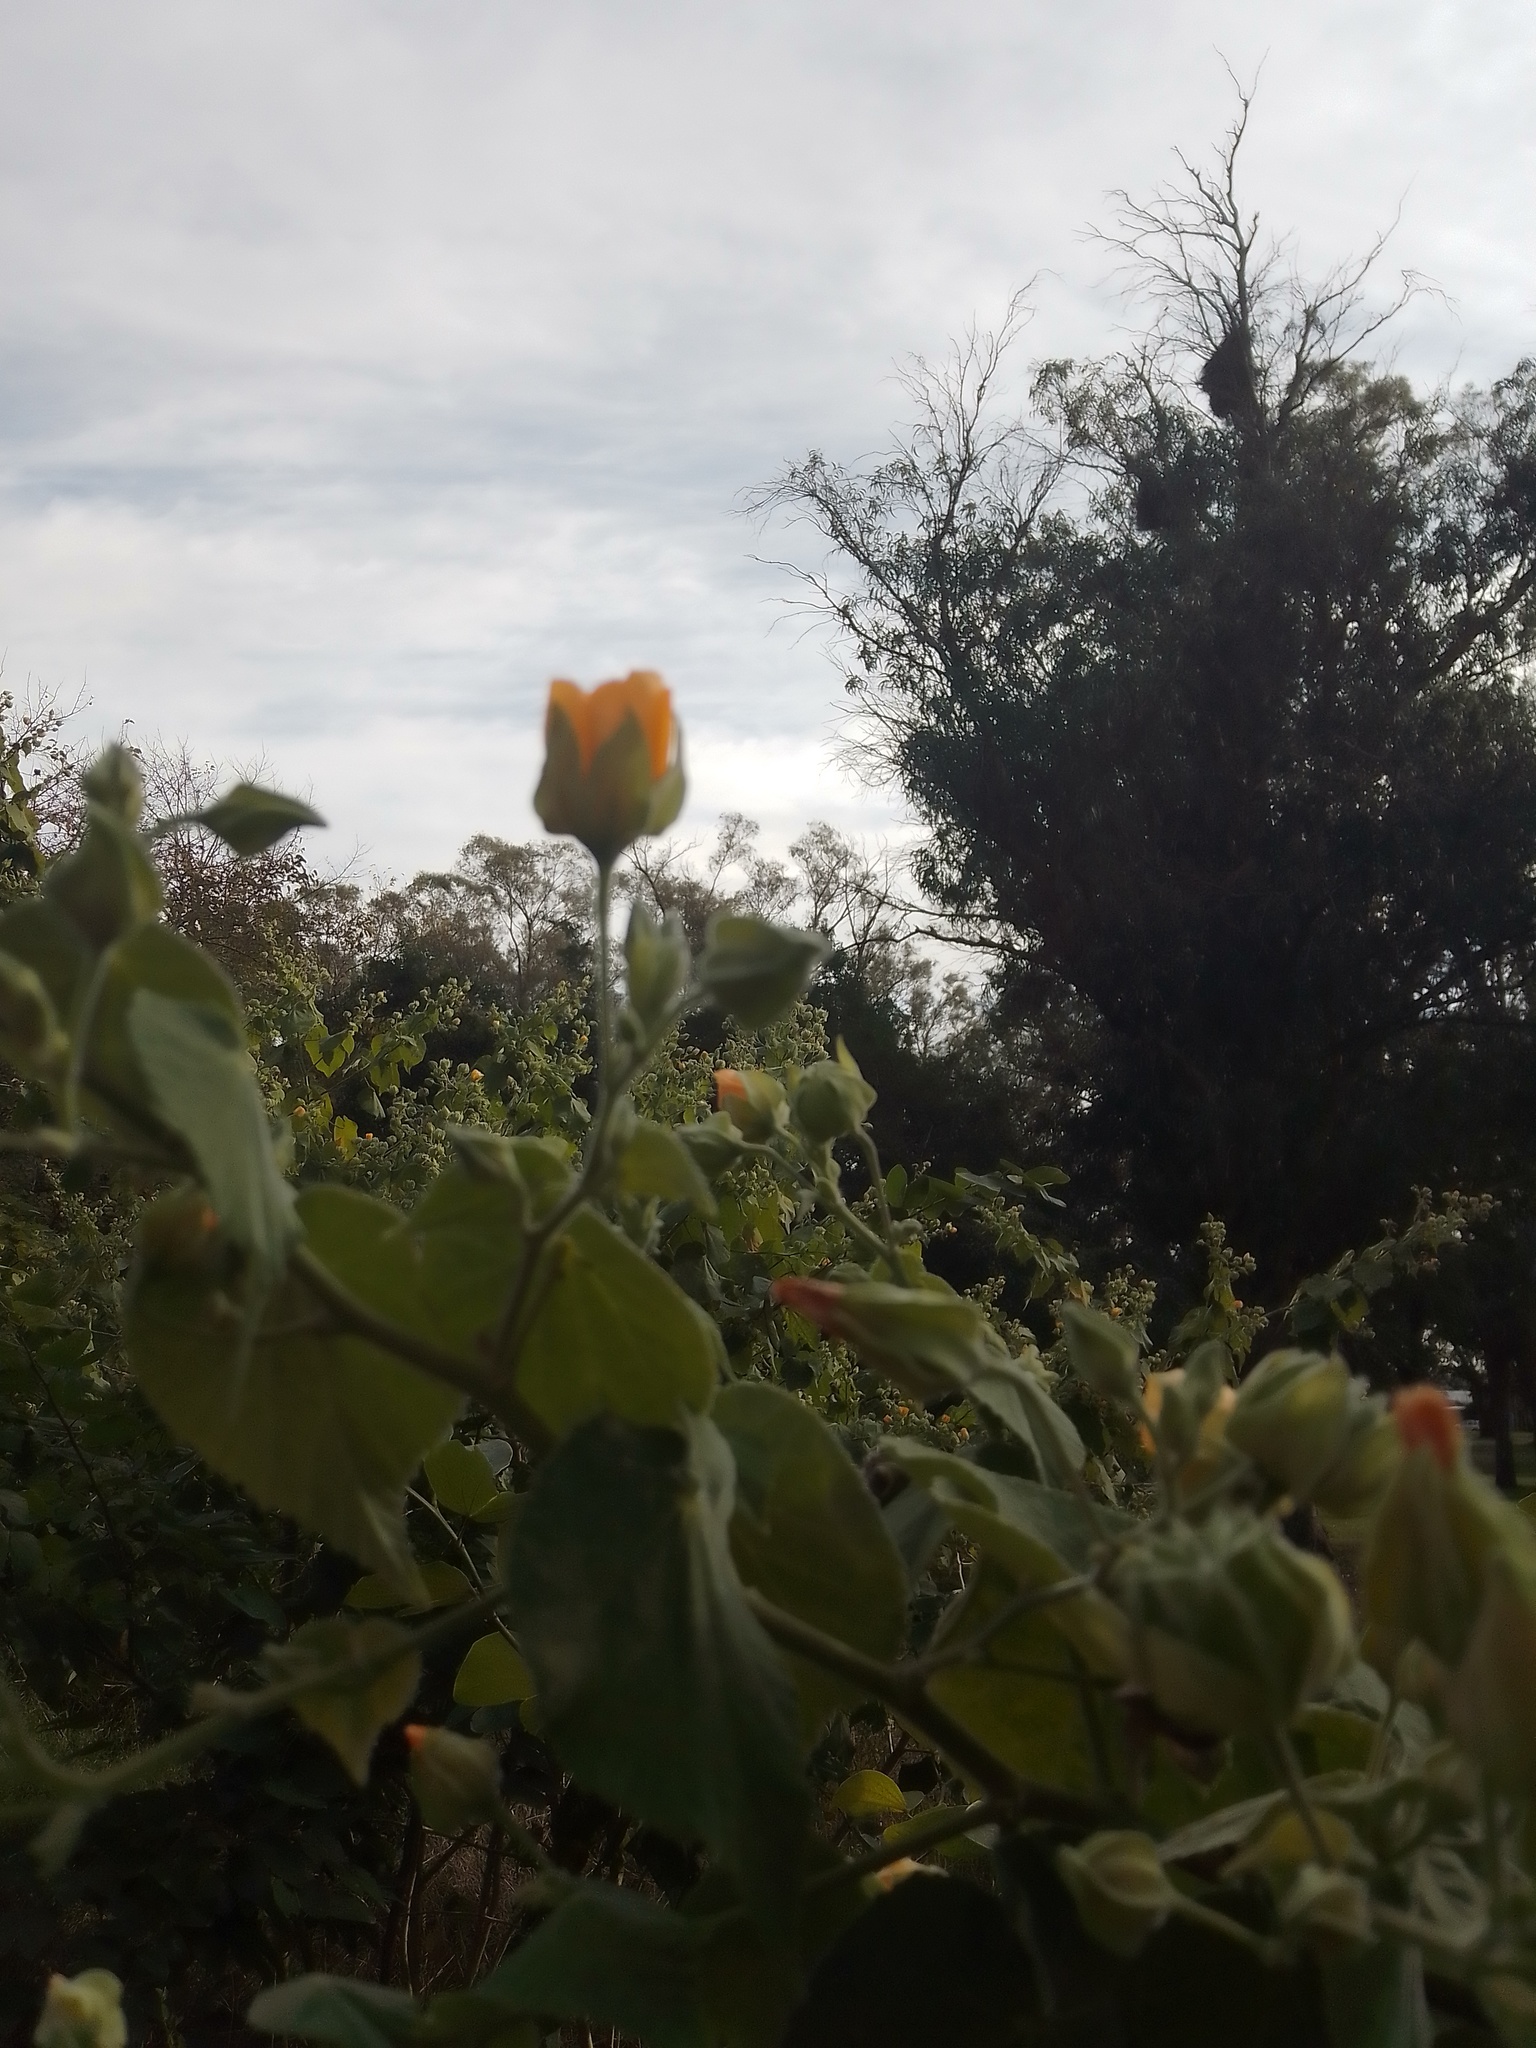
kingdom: Plantae
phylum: Tracheophyta
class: Magnoliopsida
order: Malvales
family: Malvaceae
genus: Abutilon
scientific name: Abutilon grandifolium
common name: Hairy abutilon
